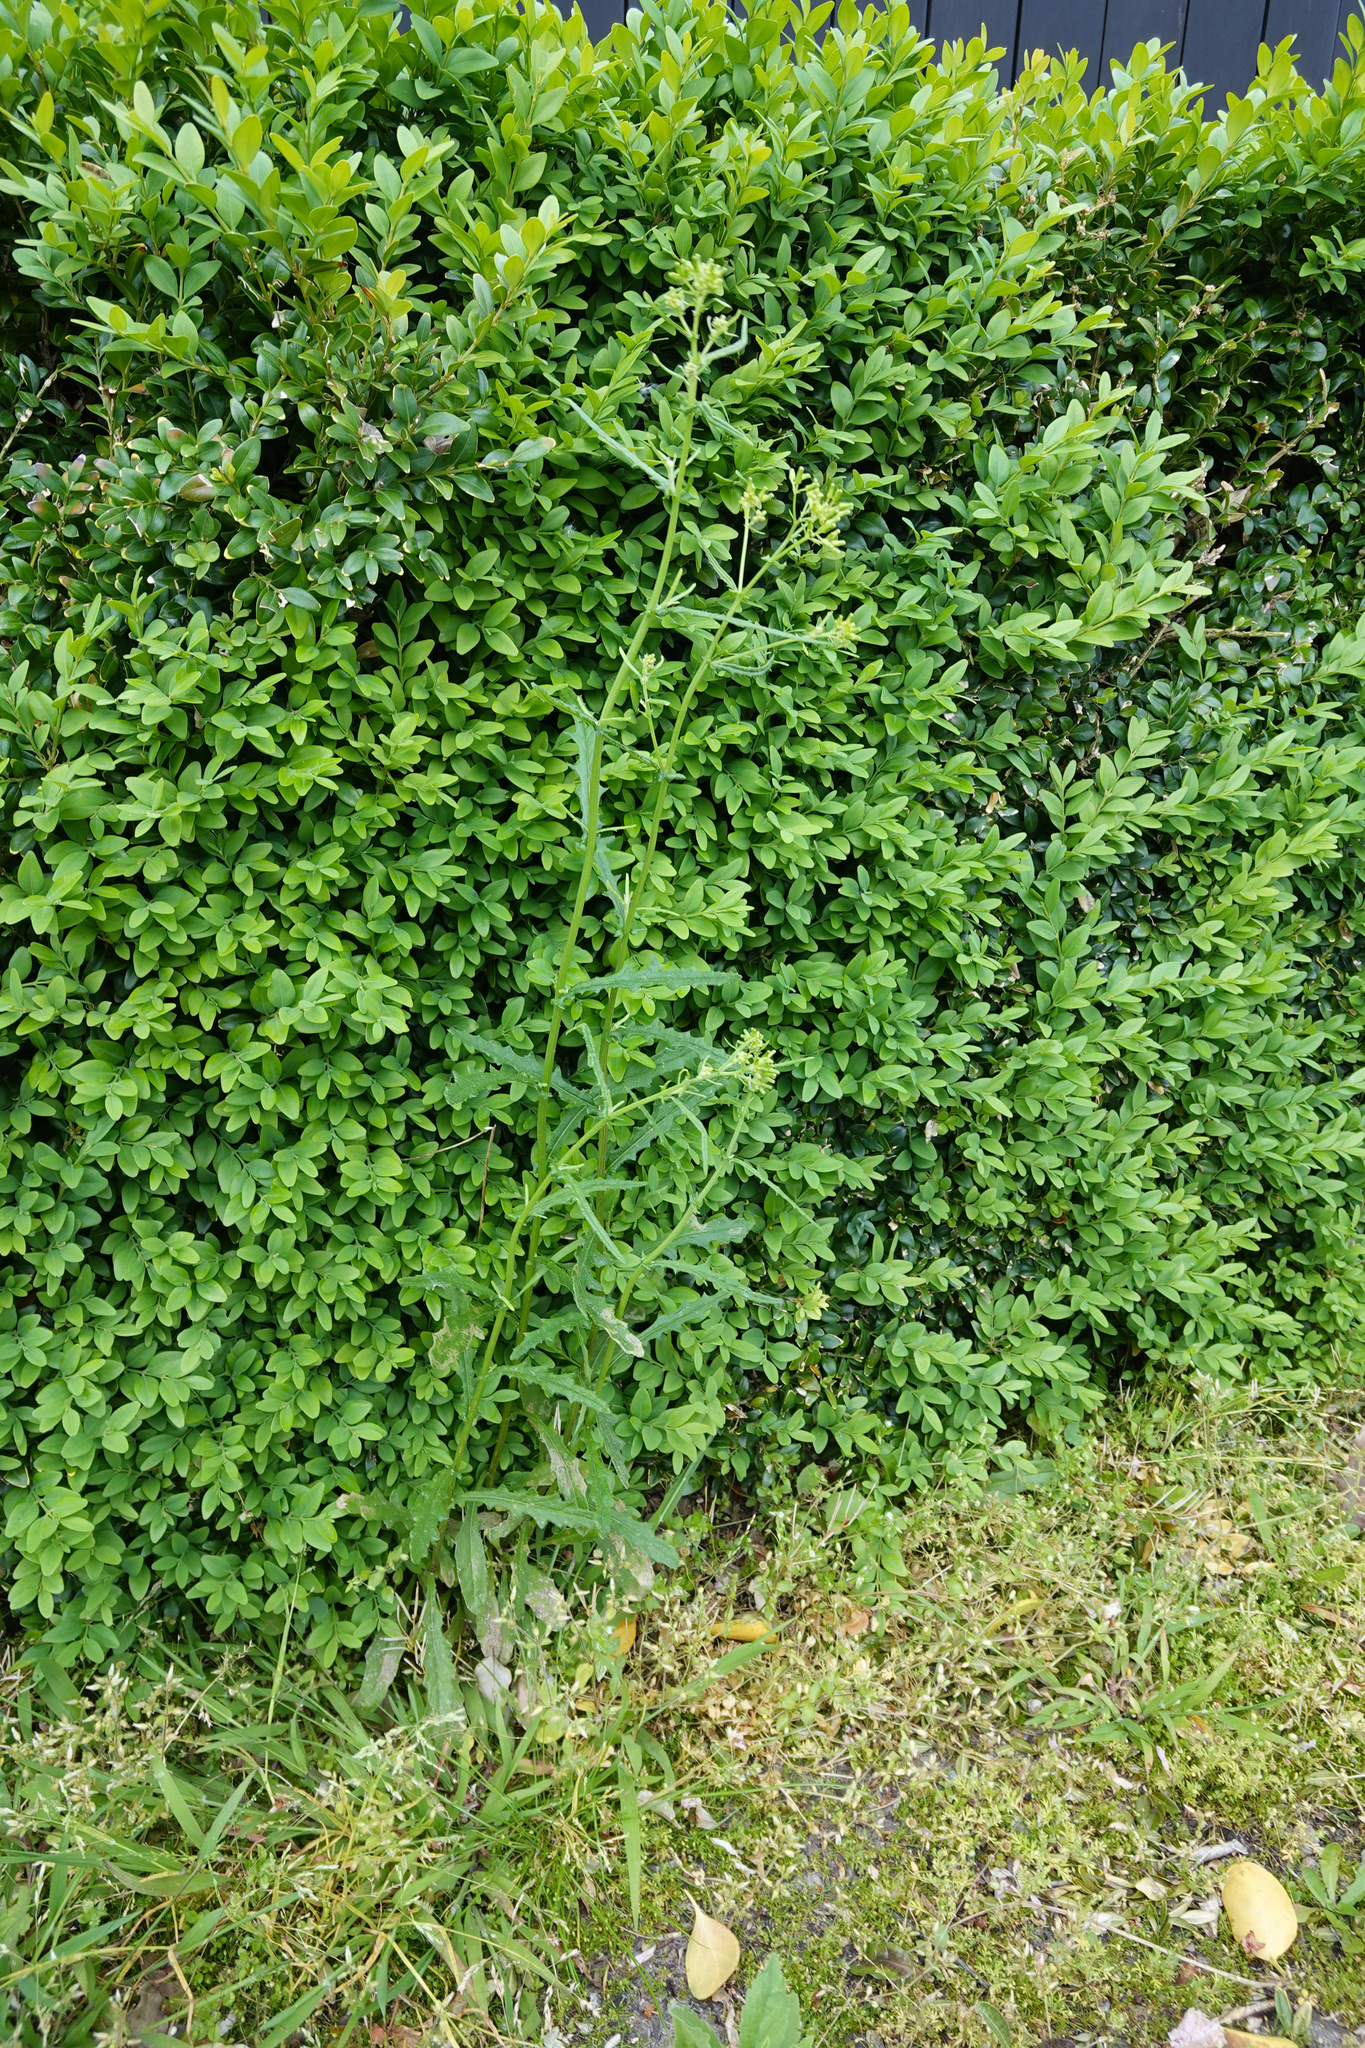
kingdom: Plantae
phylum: Tracheophyta
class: Magnoliopsida
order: Asterales
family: Asteraceae
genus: Senecio
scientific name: Senecio hispidulus
